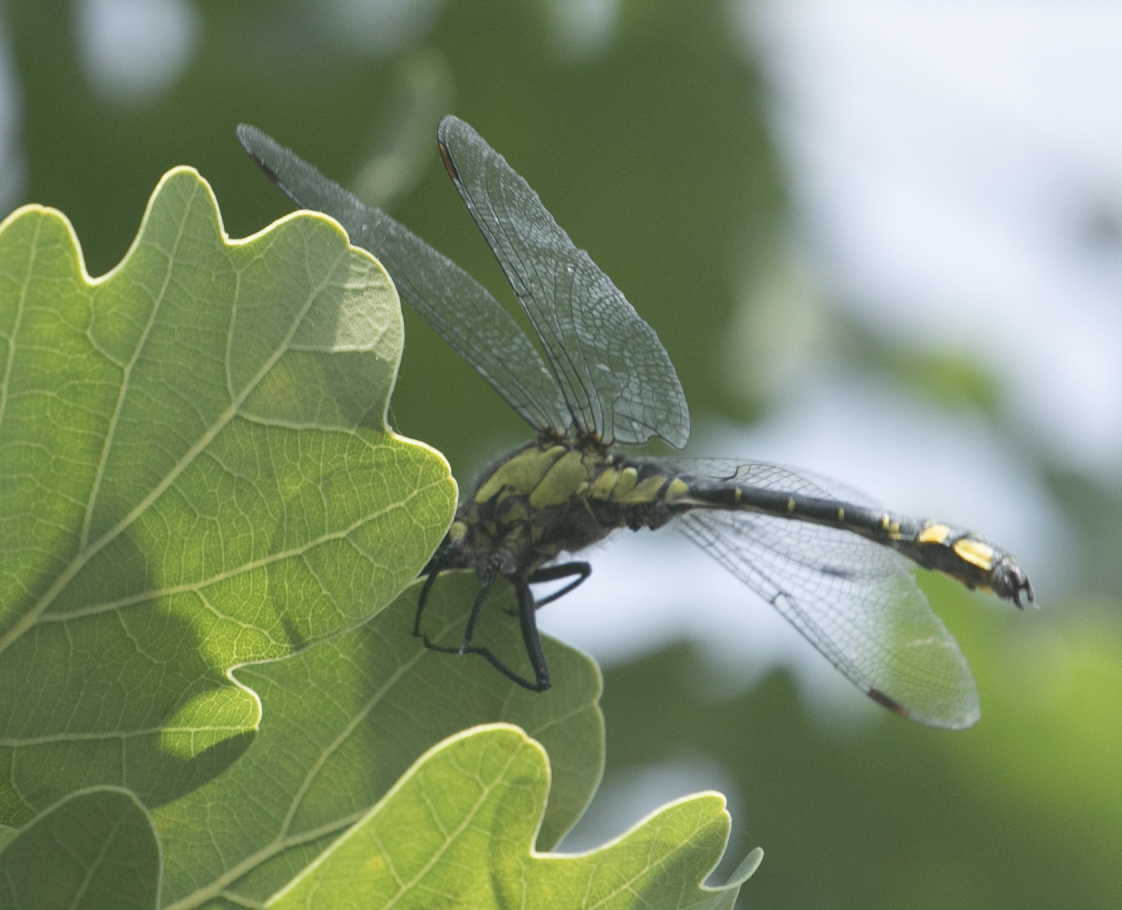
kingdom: Animalia
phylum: Arthropoda
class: Insecta
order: Odonata
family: Gomphidae
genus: Gomphus
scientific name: Gomphus vulgatissimus
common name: Club-tailed dragonfly
